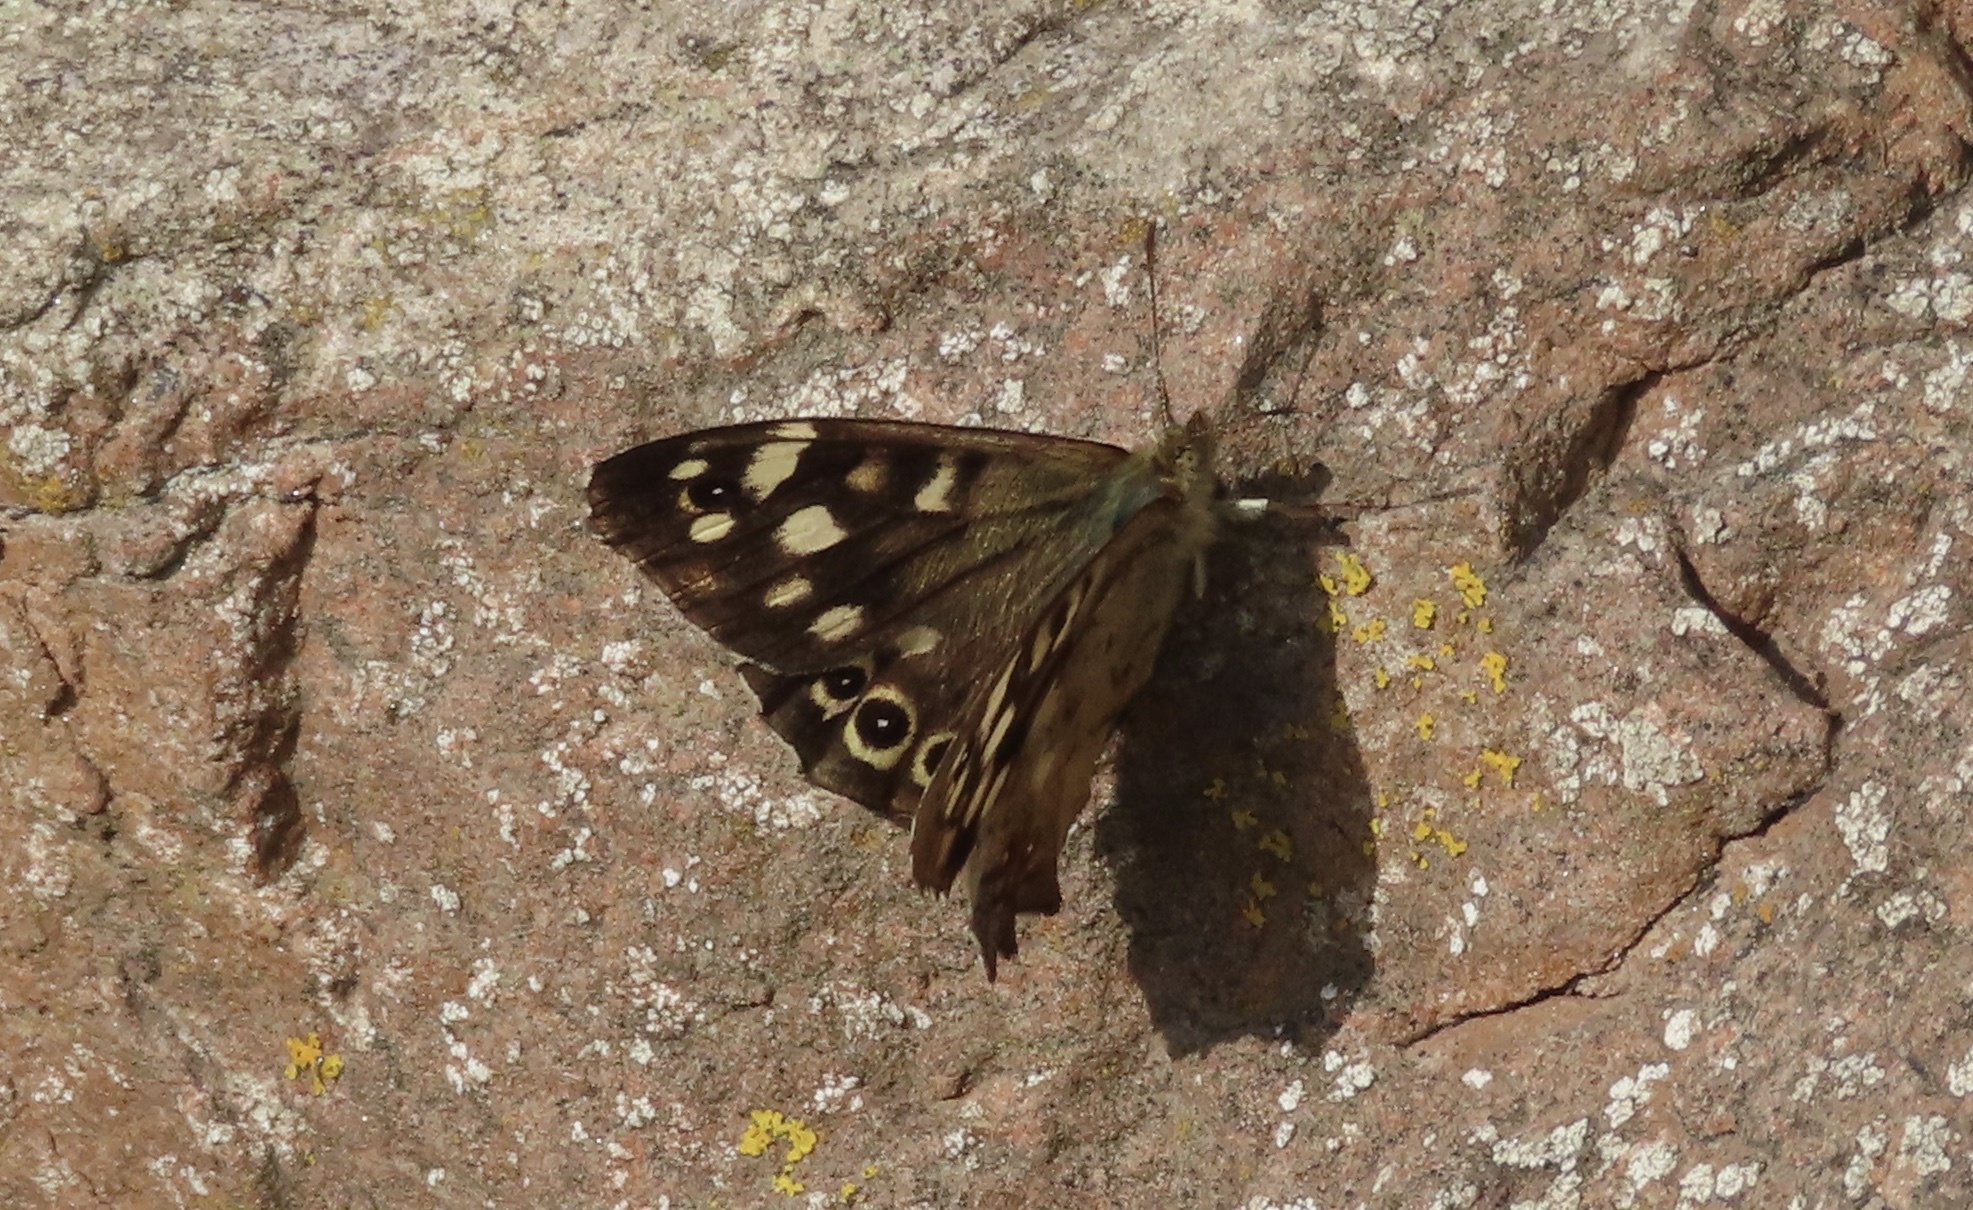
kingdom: Animalia
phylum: Arthropoda
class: Insecta
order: Lepidoptera
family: Nymphalidae
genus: Pararge
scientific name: Pararge aegeria
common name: Speckled wood
